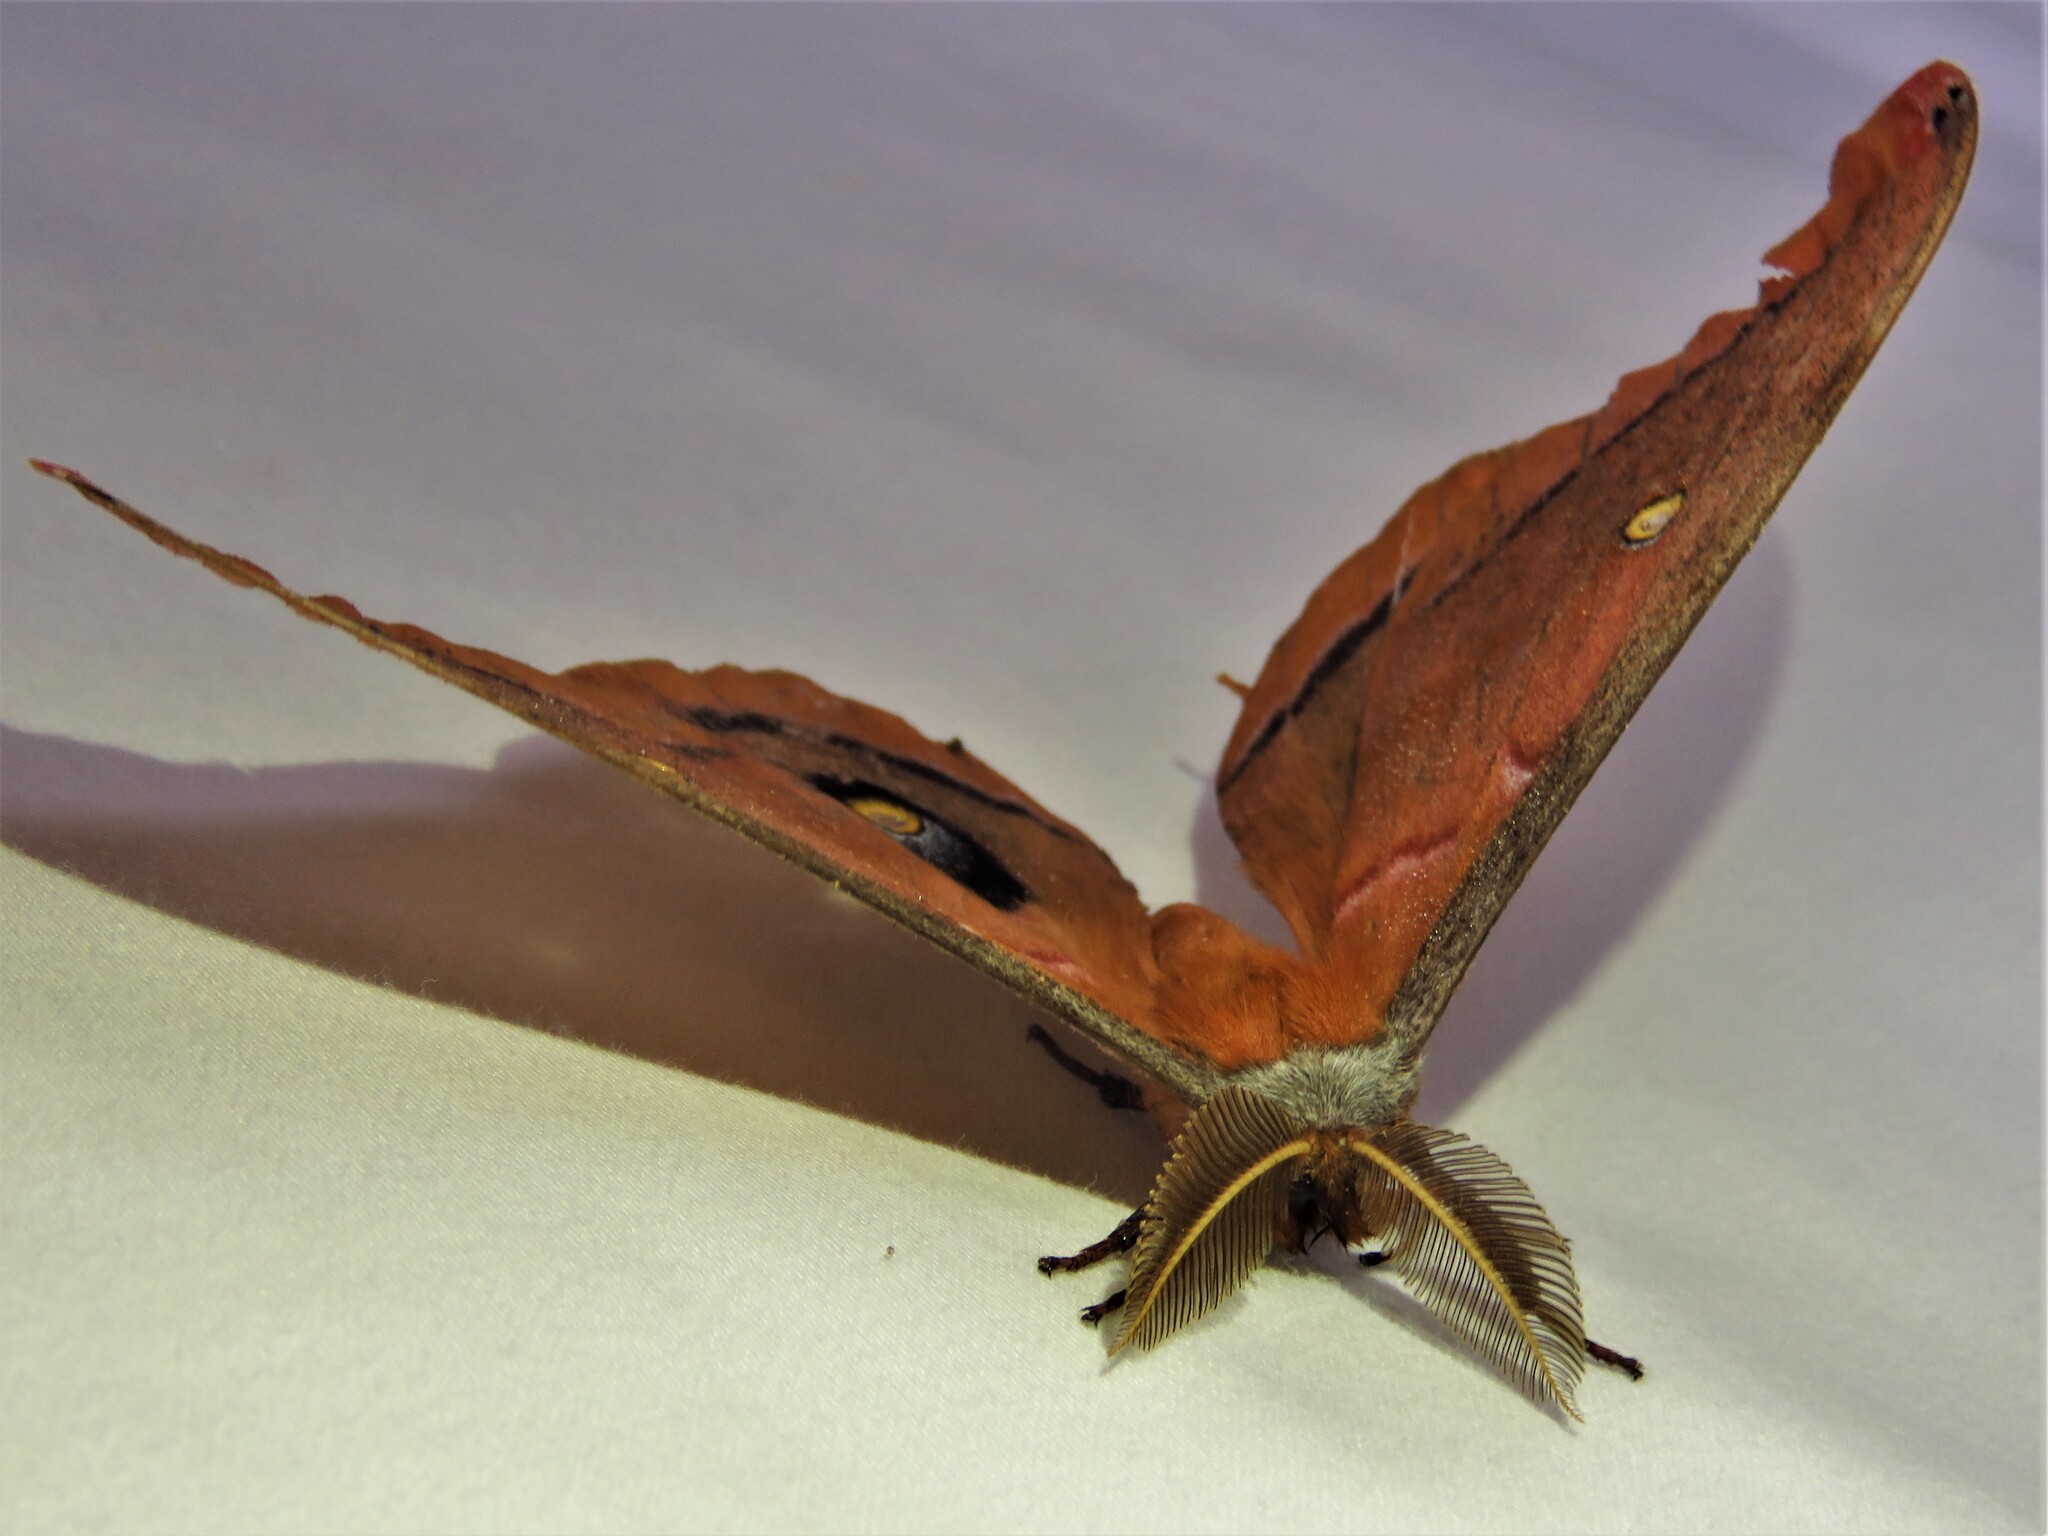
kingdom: Animalia
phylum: Arthropoda
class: Insecta
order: Lepidoptera
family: Saturniidae
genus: Antheraea
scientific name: Antheraea polyphemus
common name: Polyphemus moth
